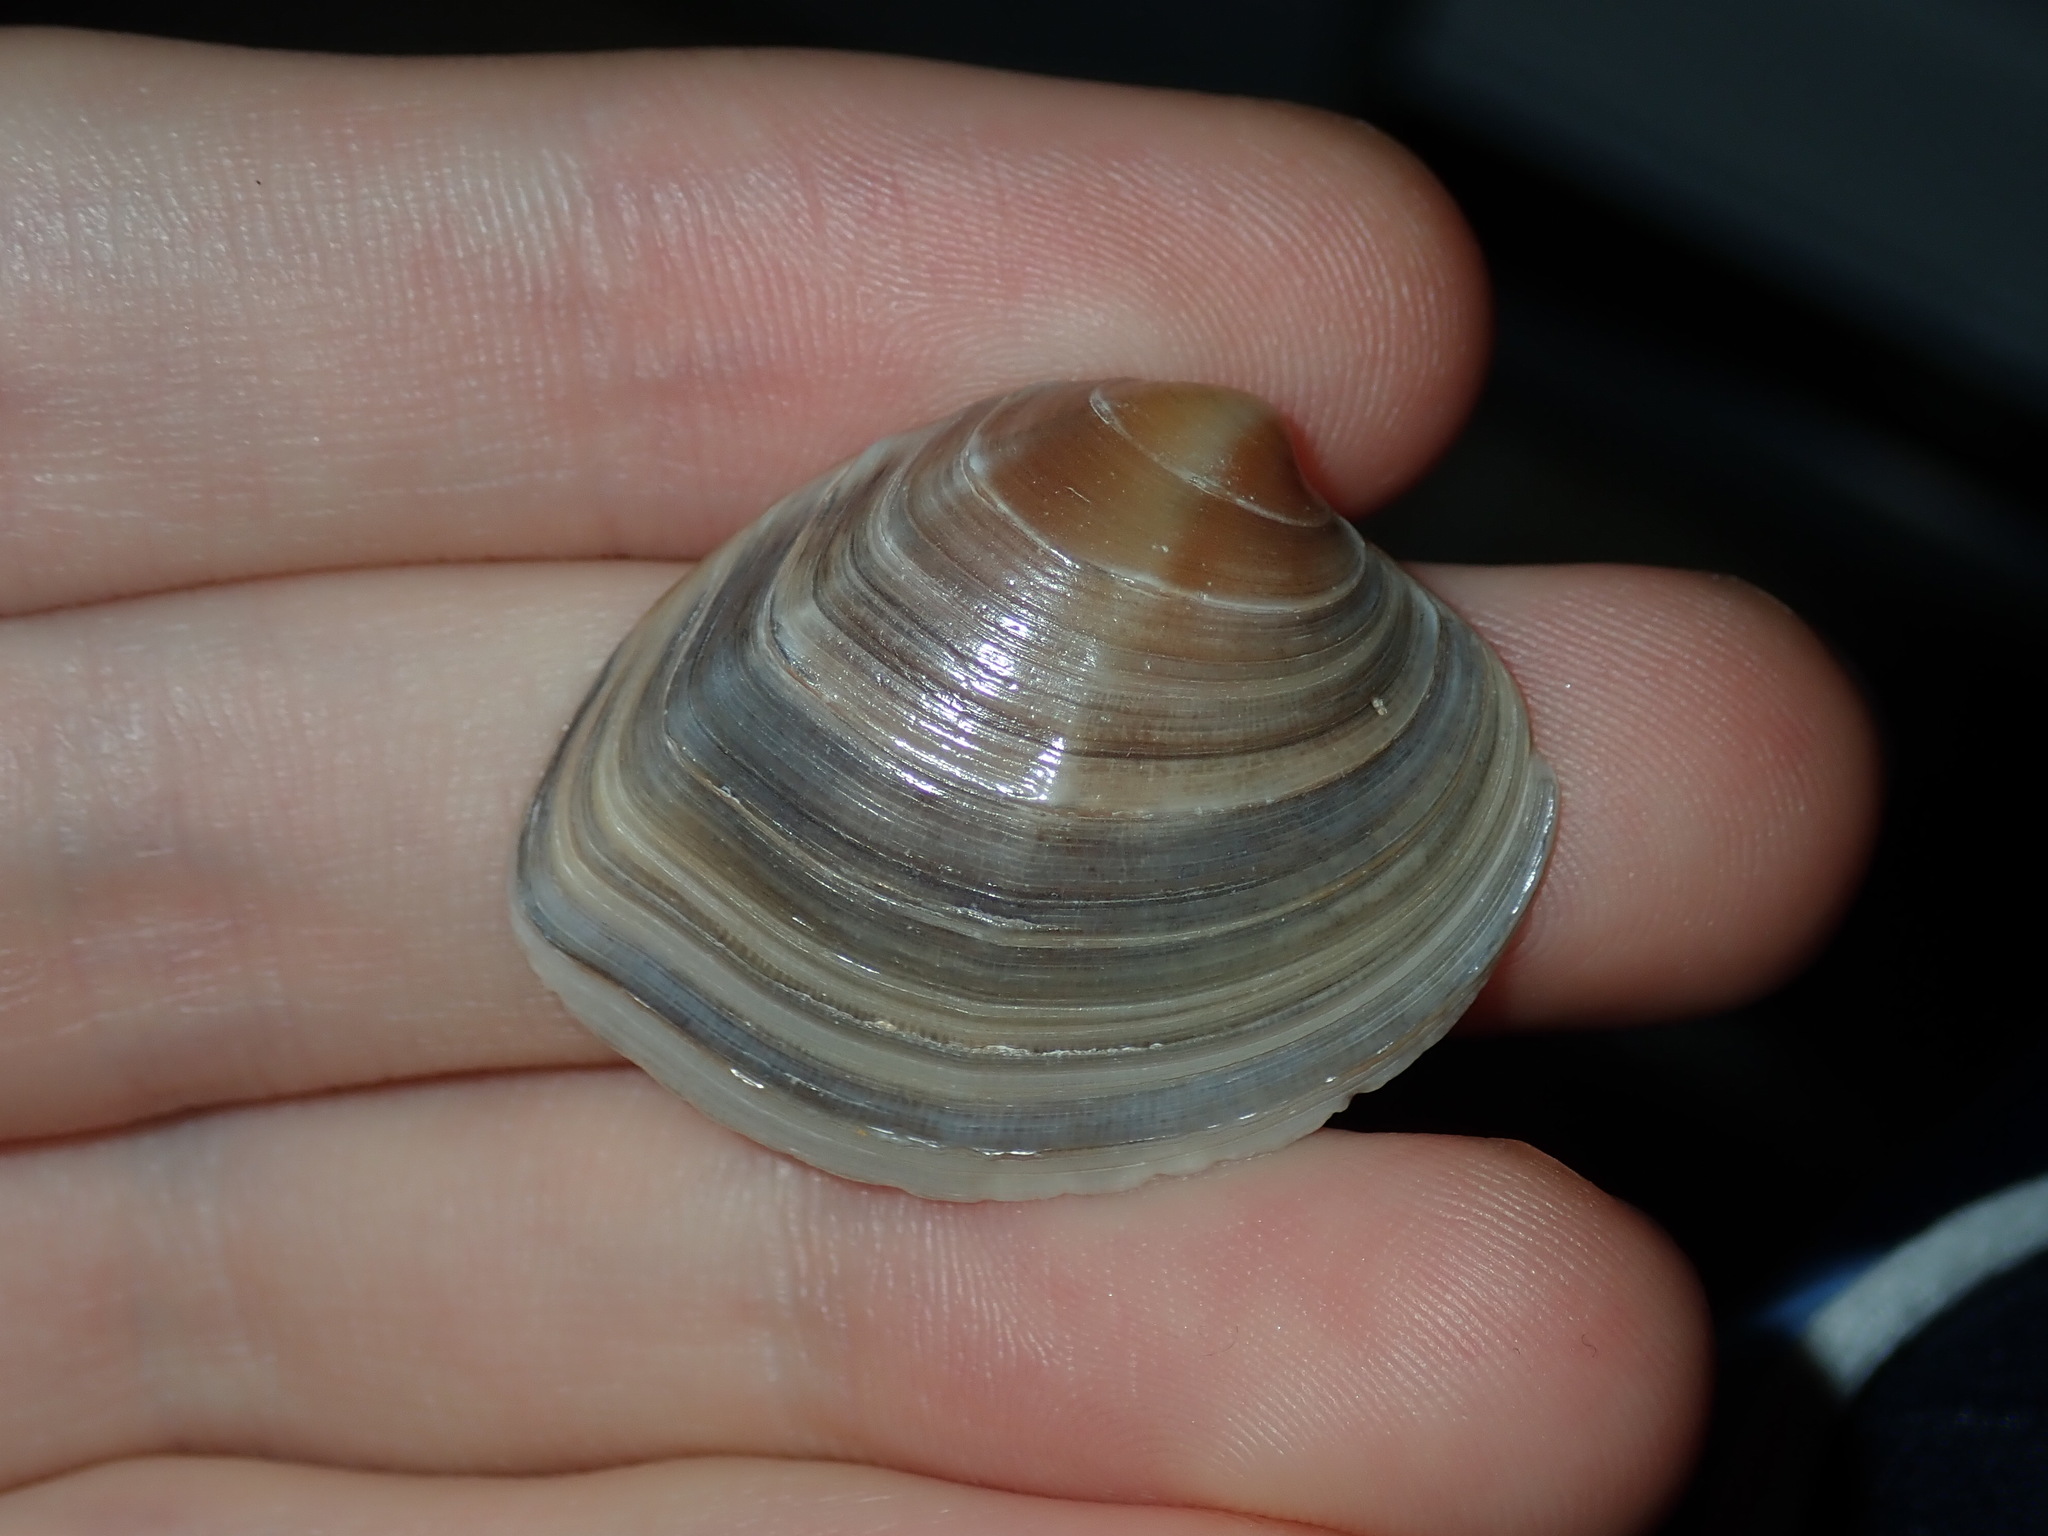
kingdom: Animalia
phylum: Mollusca
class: Bivalvia
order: Venerida
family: Veneridae
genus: Bassina
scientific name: Bassina jacksonii
